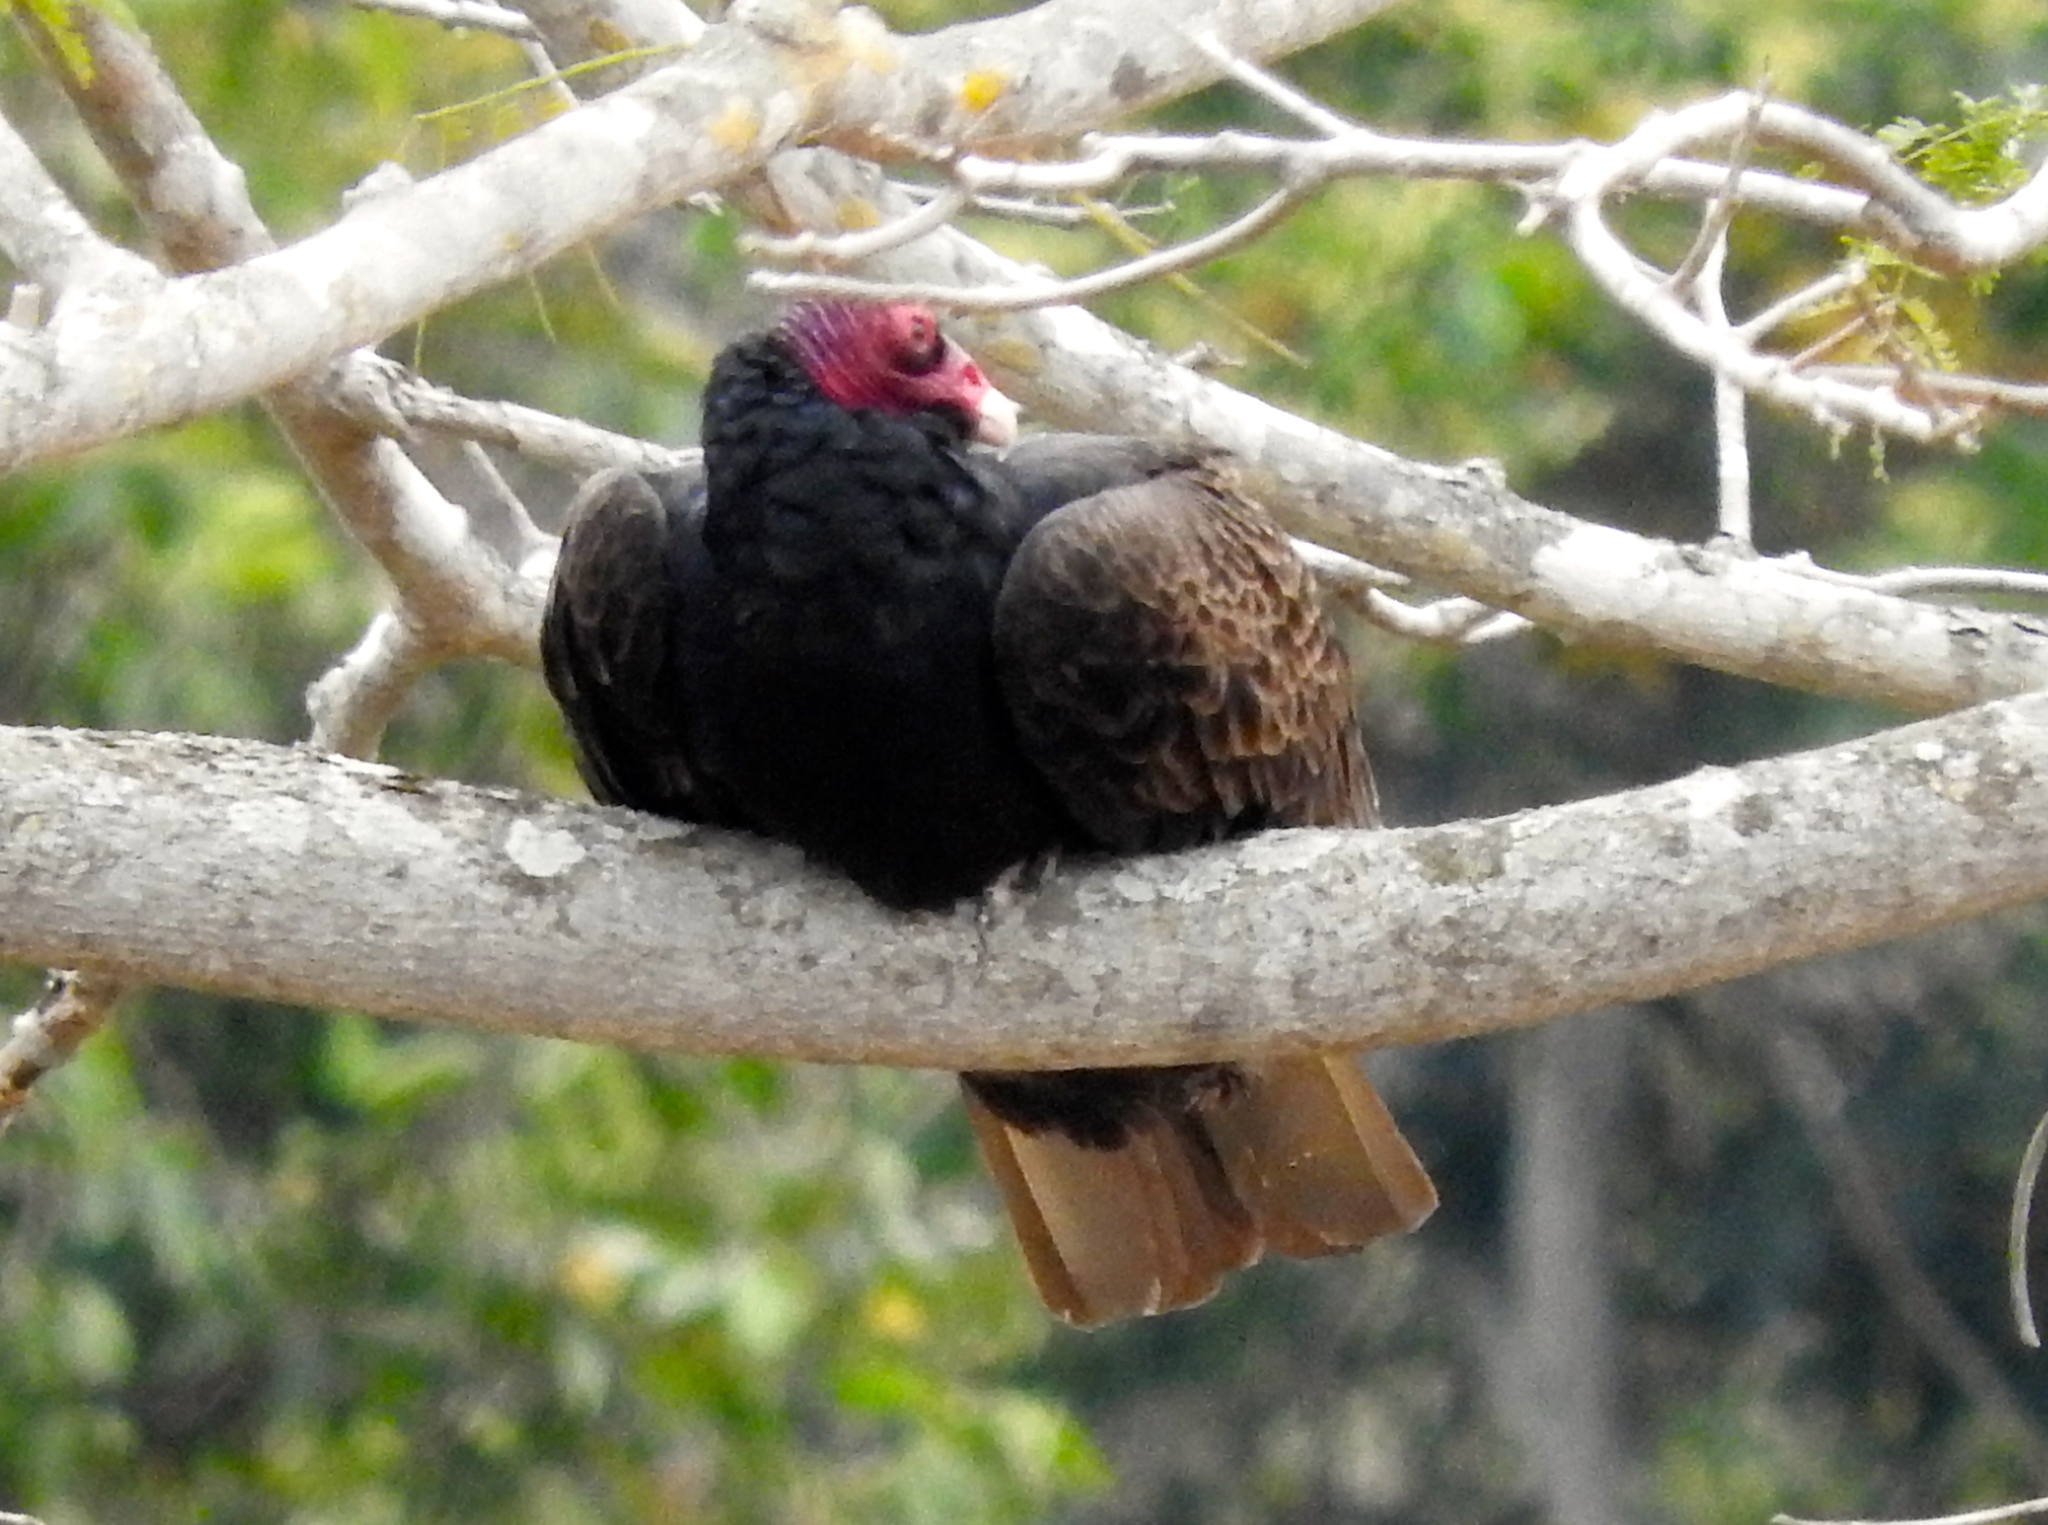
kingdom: Animalia
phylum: Chordata
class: Aves
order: Accipitriformes
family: Cathartidae
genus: Cathartes
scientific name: Cathartes aura
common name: Turkey vulture
